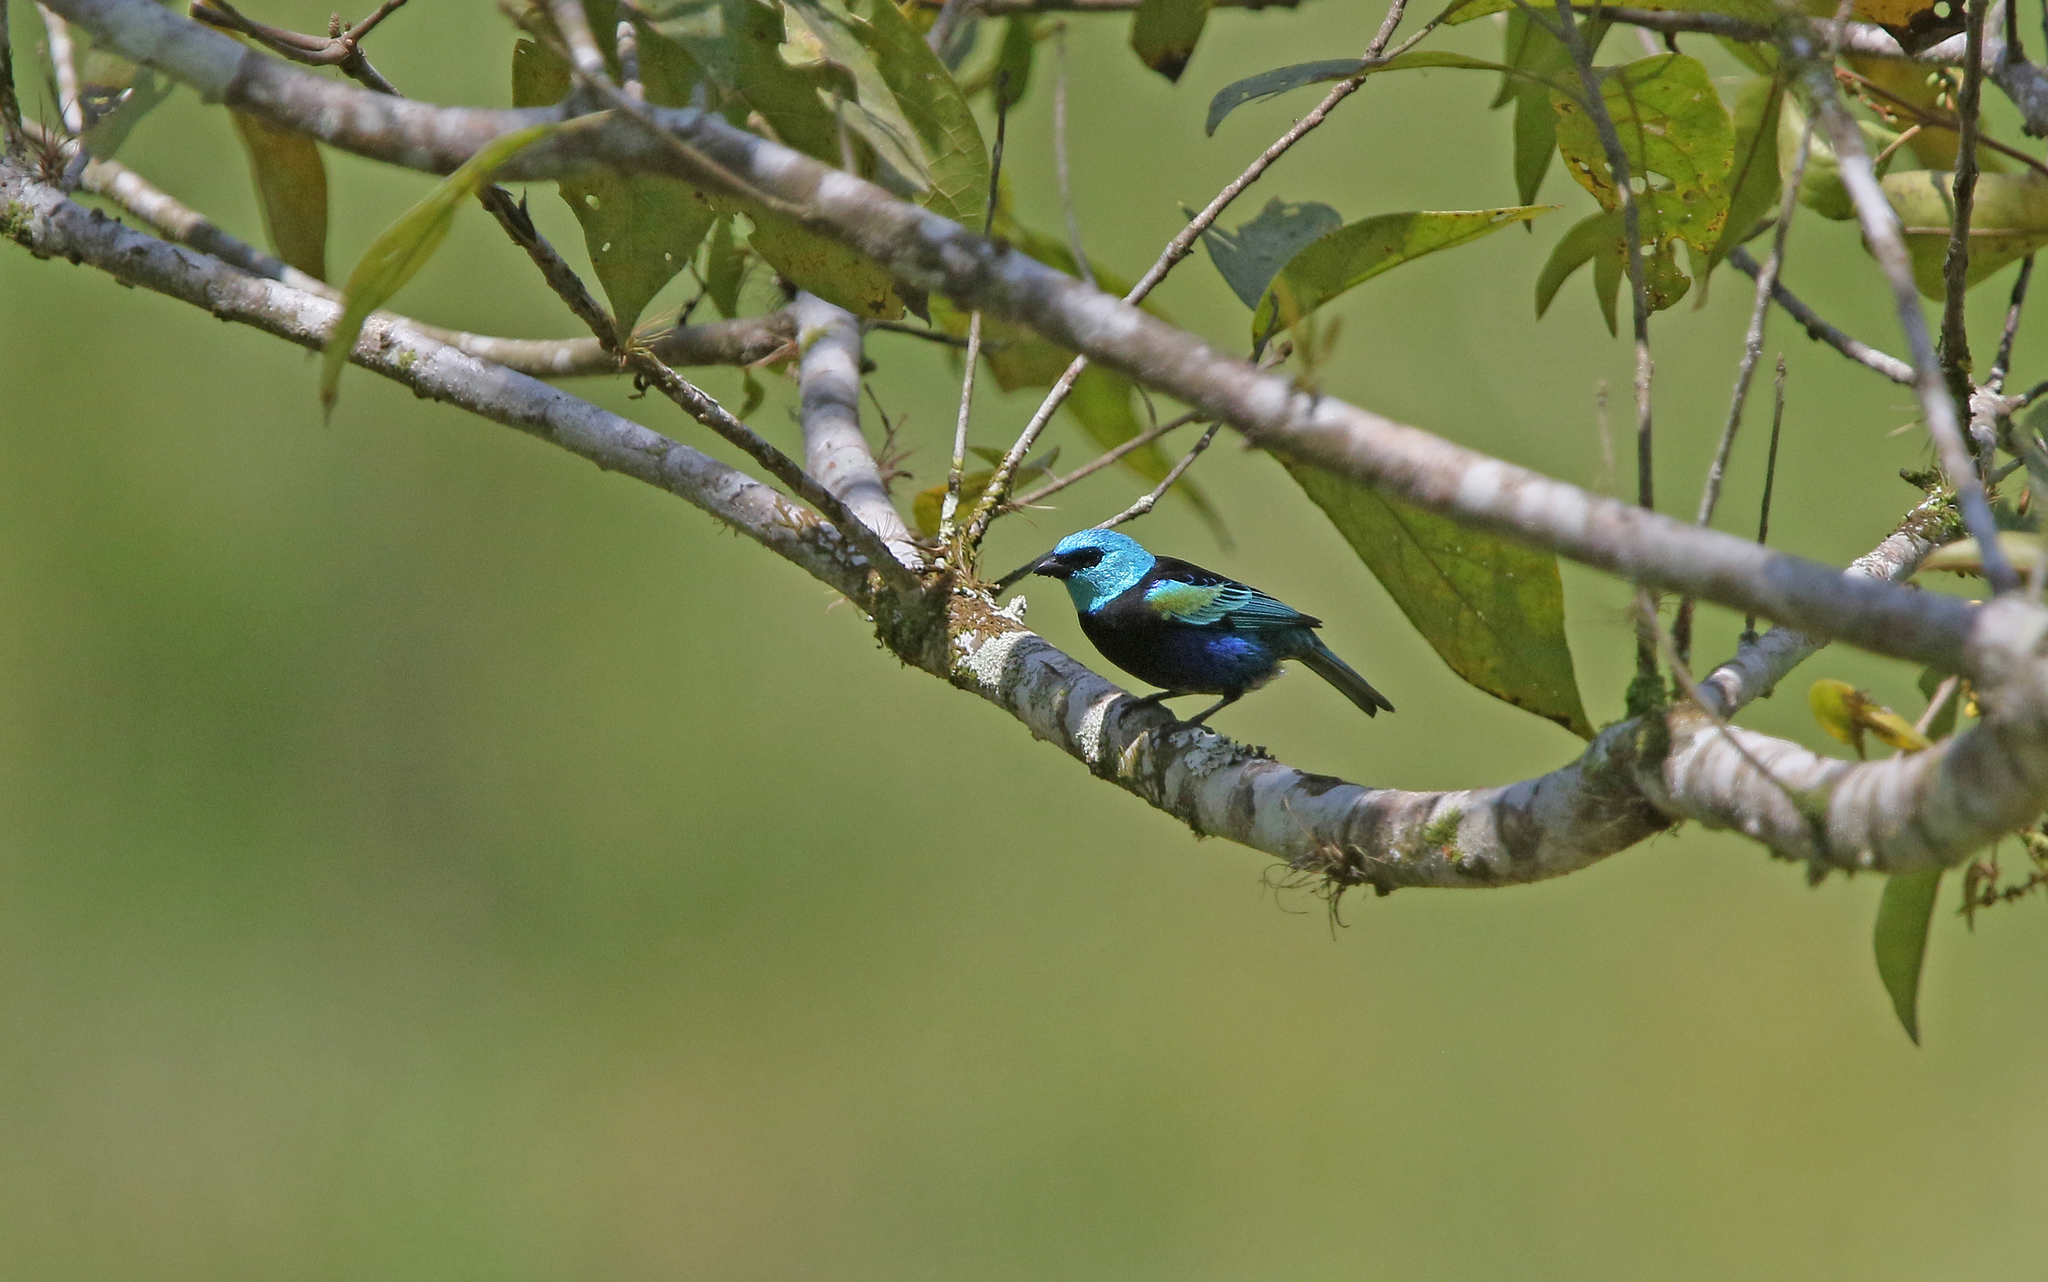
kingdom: Animalia
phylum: Chordata
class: Aves
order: Passeriformes
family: Thraupidae
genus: Stilpnia
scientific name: Stilpnia cyanicollis
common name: Blue-necked tanager
